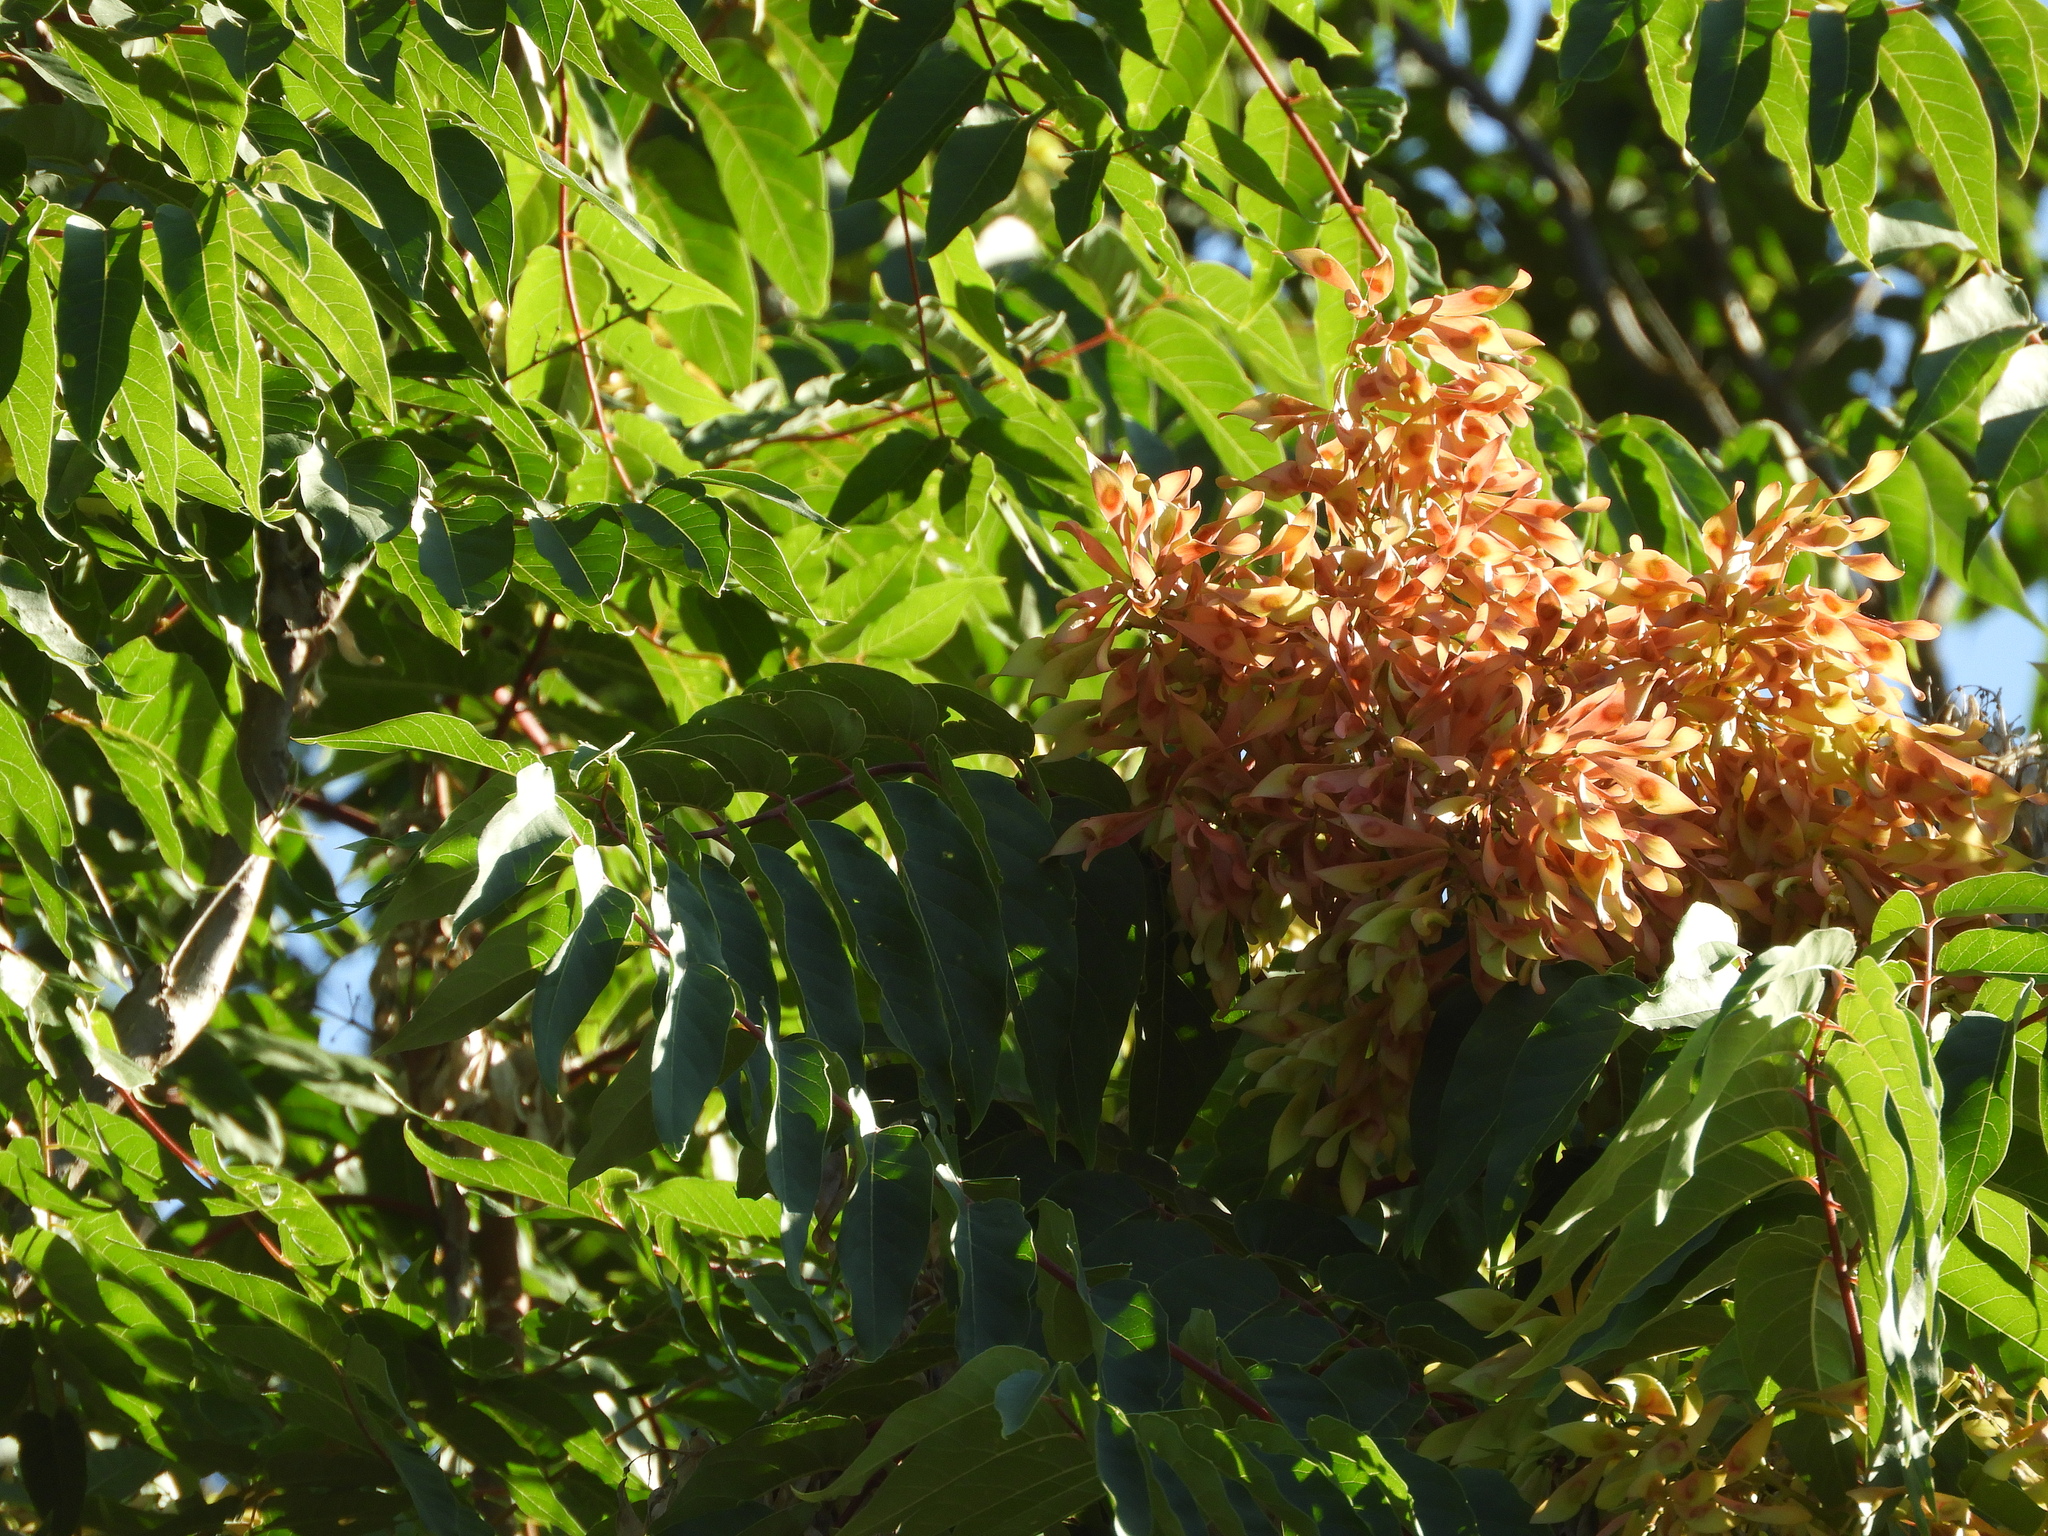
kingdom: Plantae
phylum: Tracheophyta
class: Magnoliopsida
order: Sapindales
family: Simaroubaceae
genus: Ailanthus
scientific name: Ailanthus altissima
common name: Tree-of-heaven
